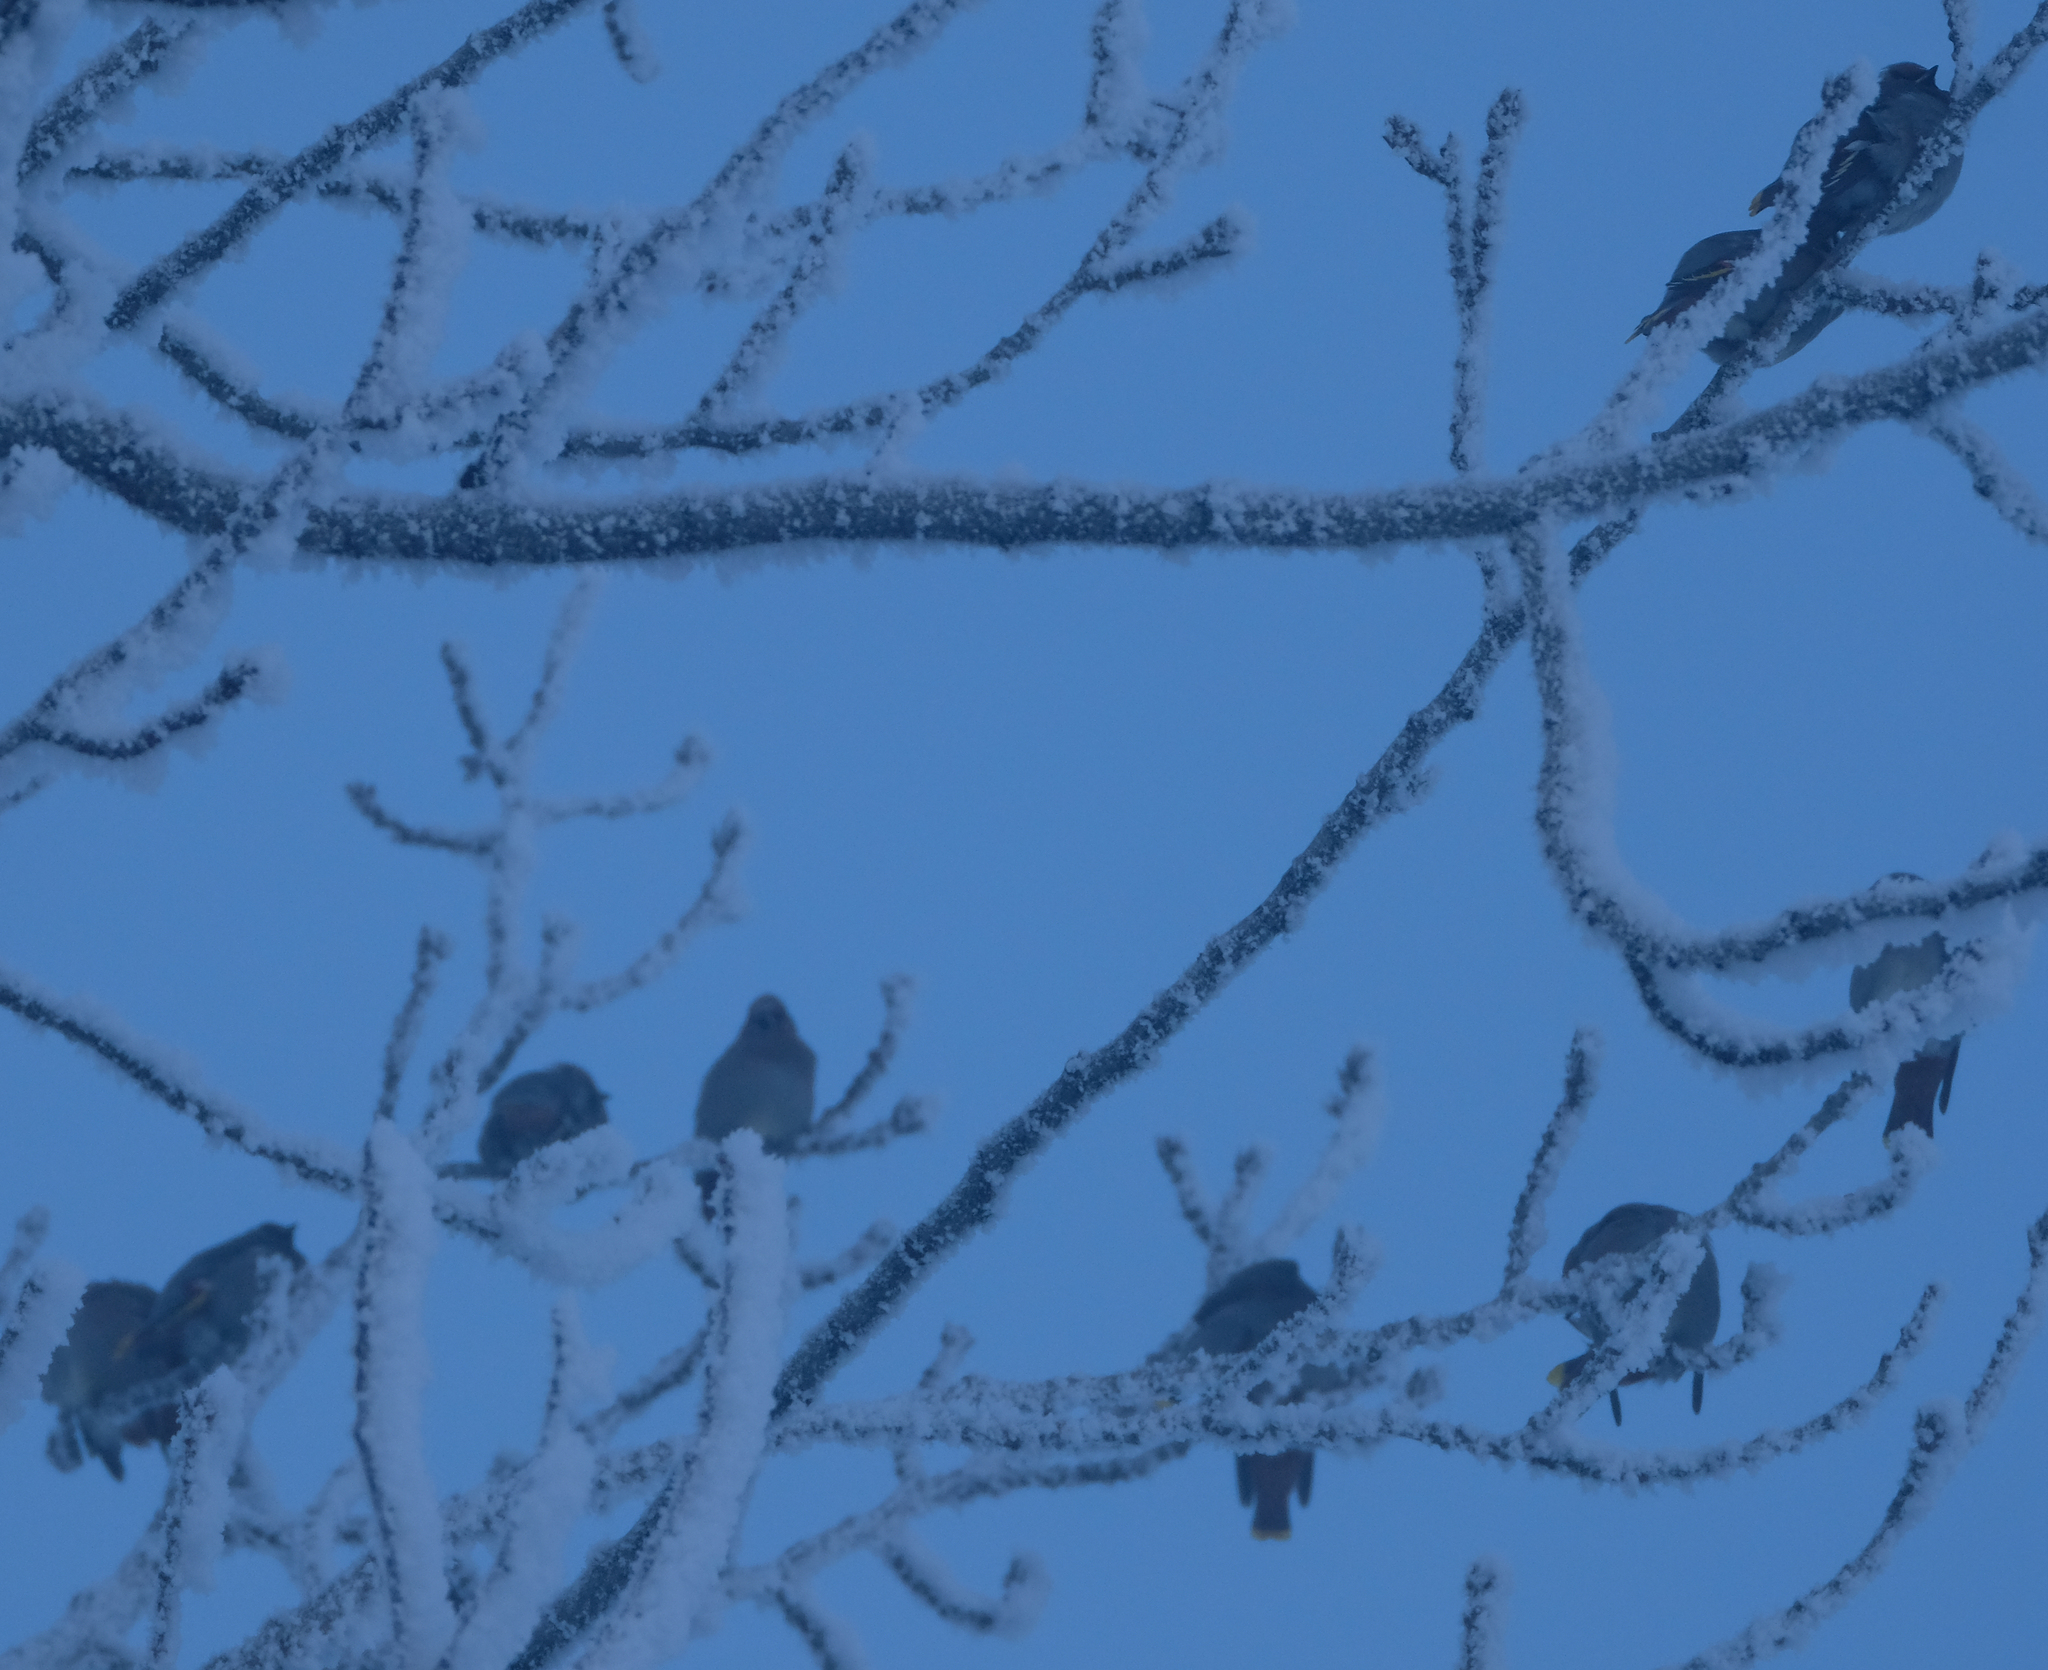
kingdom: Animalia
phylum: Chordata
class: Aves
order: Passeriformes
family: Bombycillidae
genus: Bombycilla
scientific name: Bombycilla garrulus
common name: Bohemian waxwing
